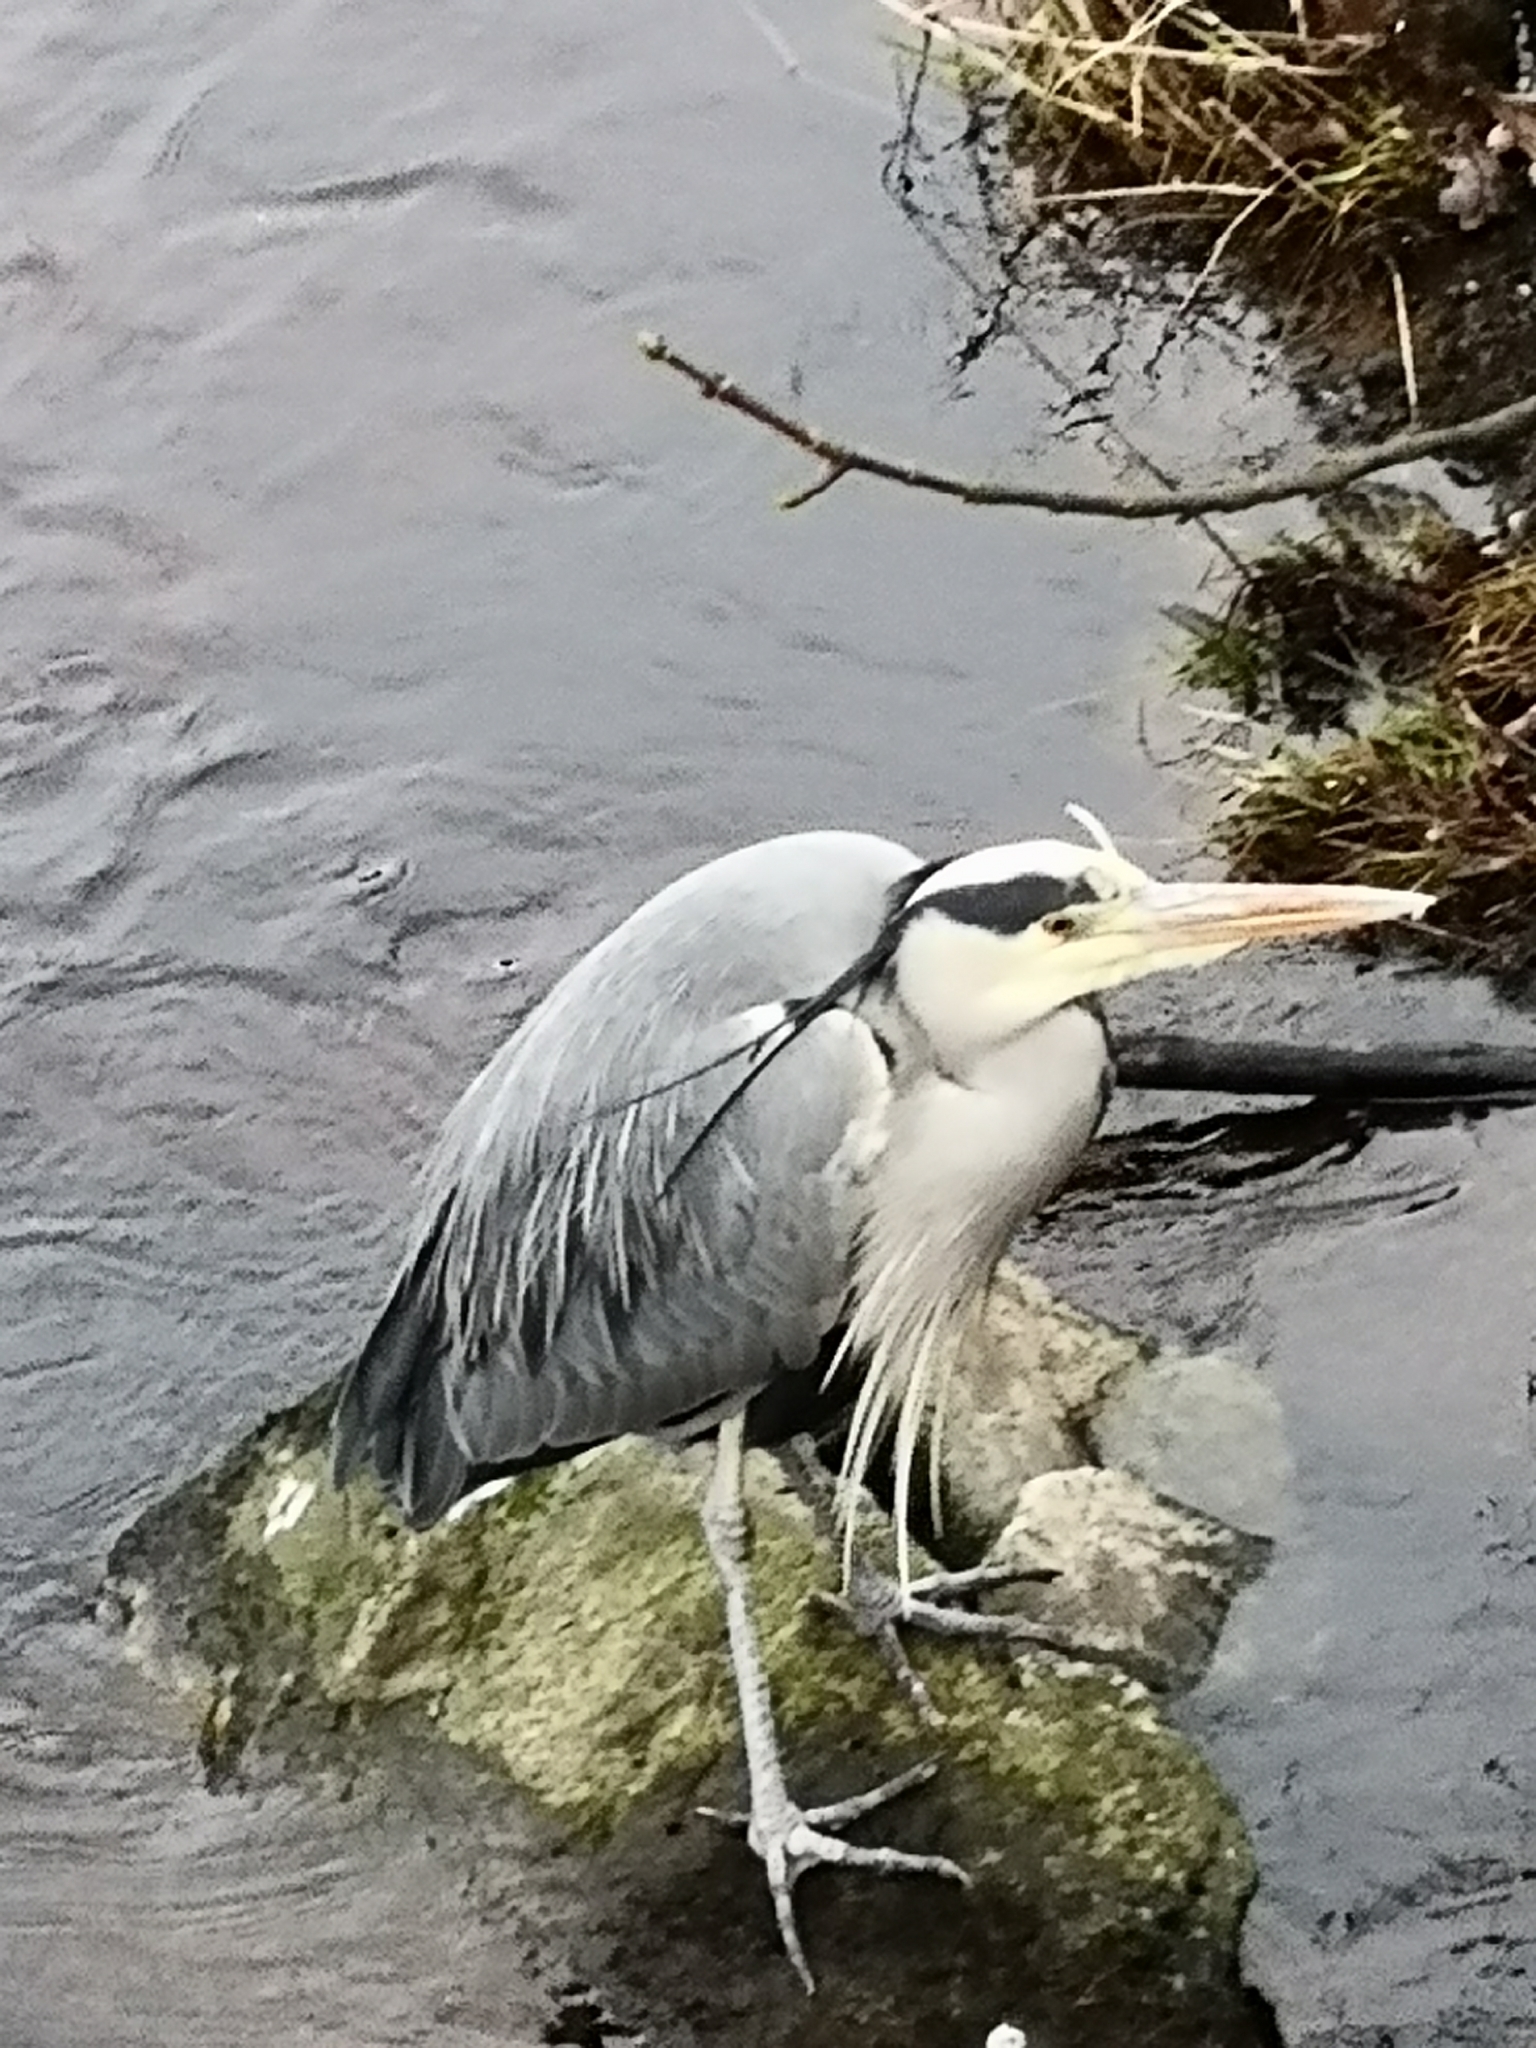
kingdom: Animalia
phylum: Chordata
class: Aves
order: Pelecaniformes
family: Ardeidae
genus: Ardea
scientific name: Ardea cinerea
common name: Grey heron
